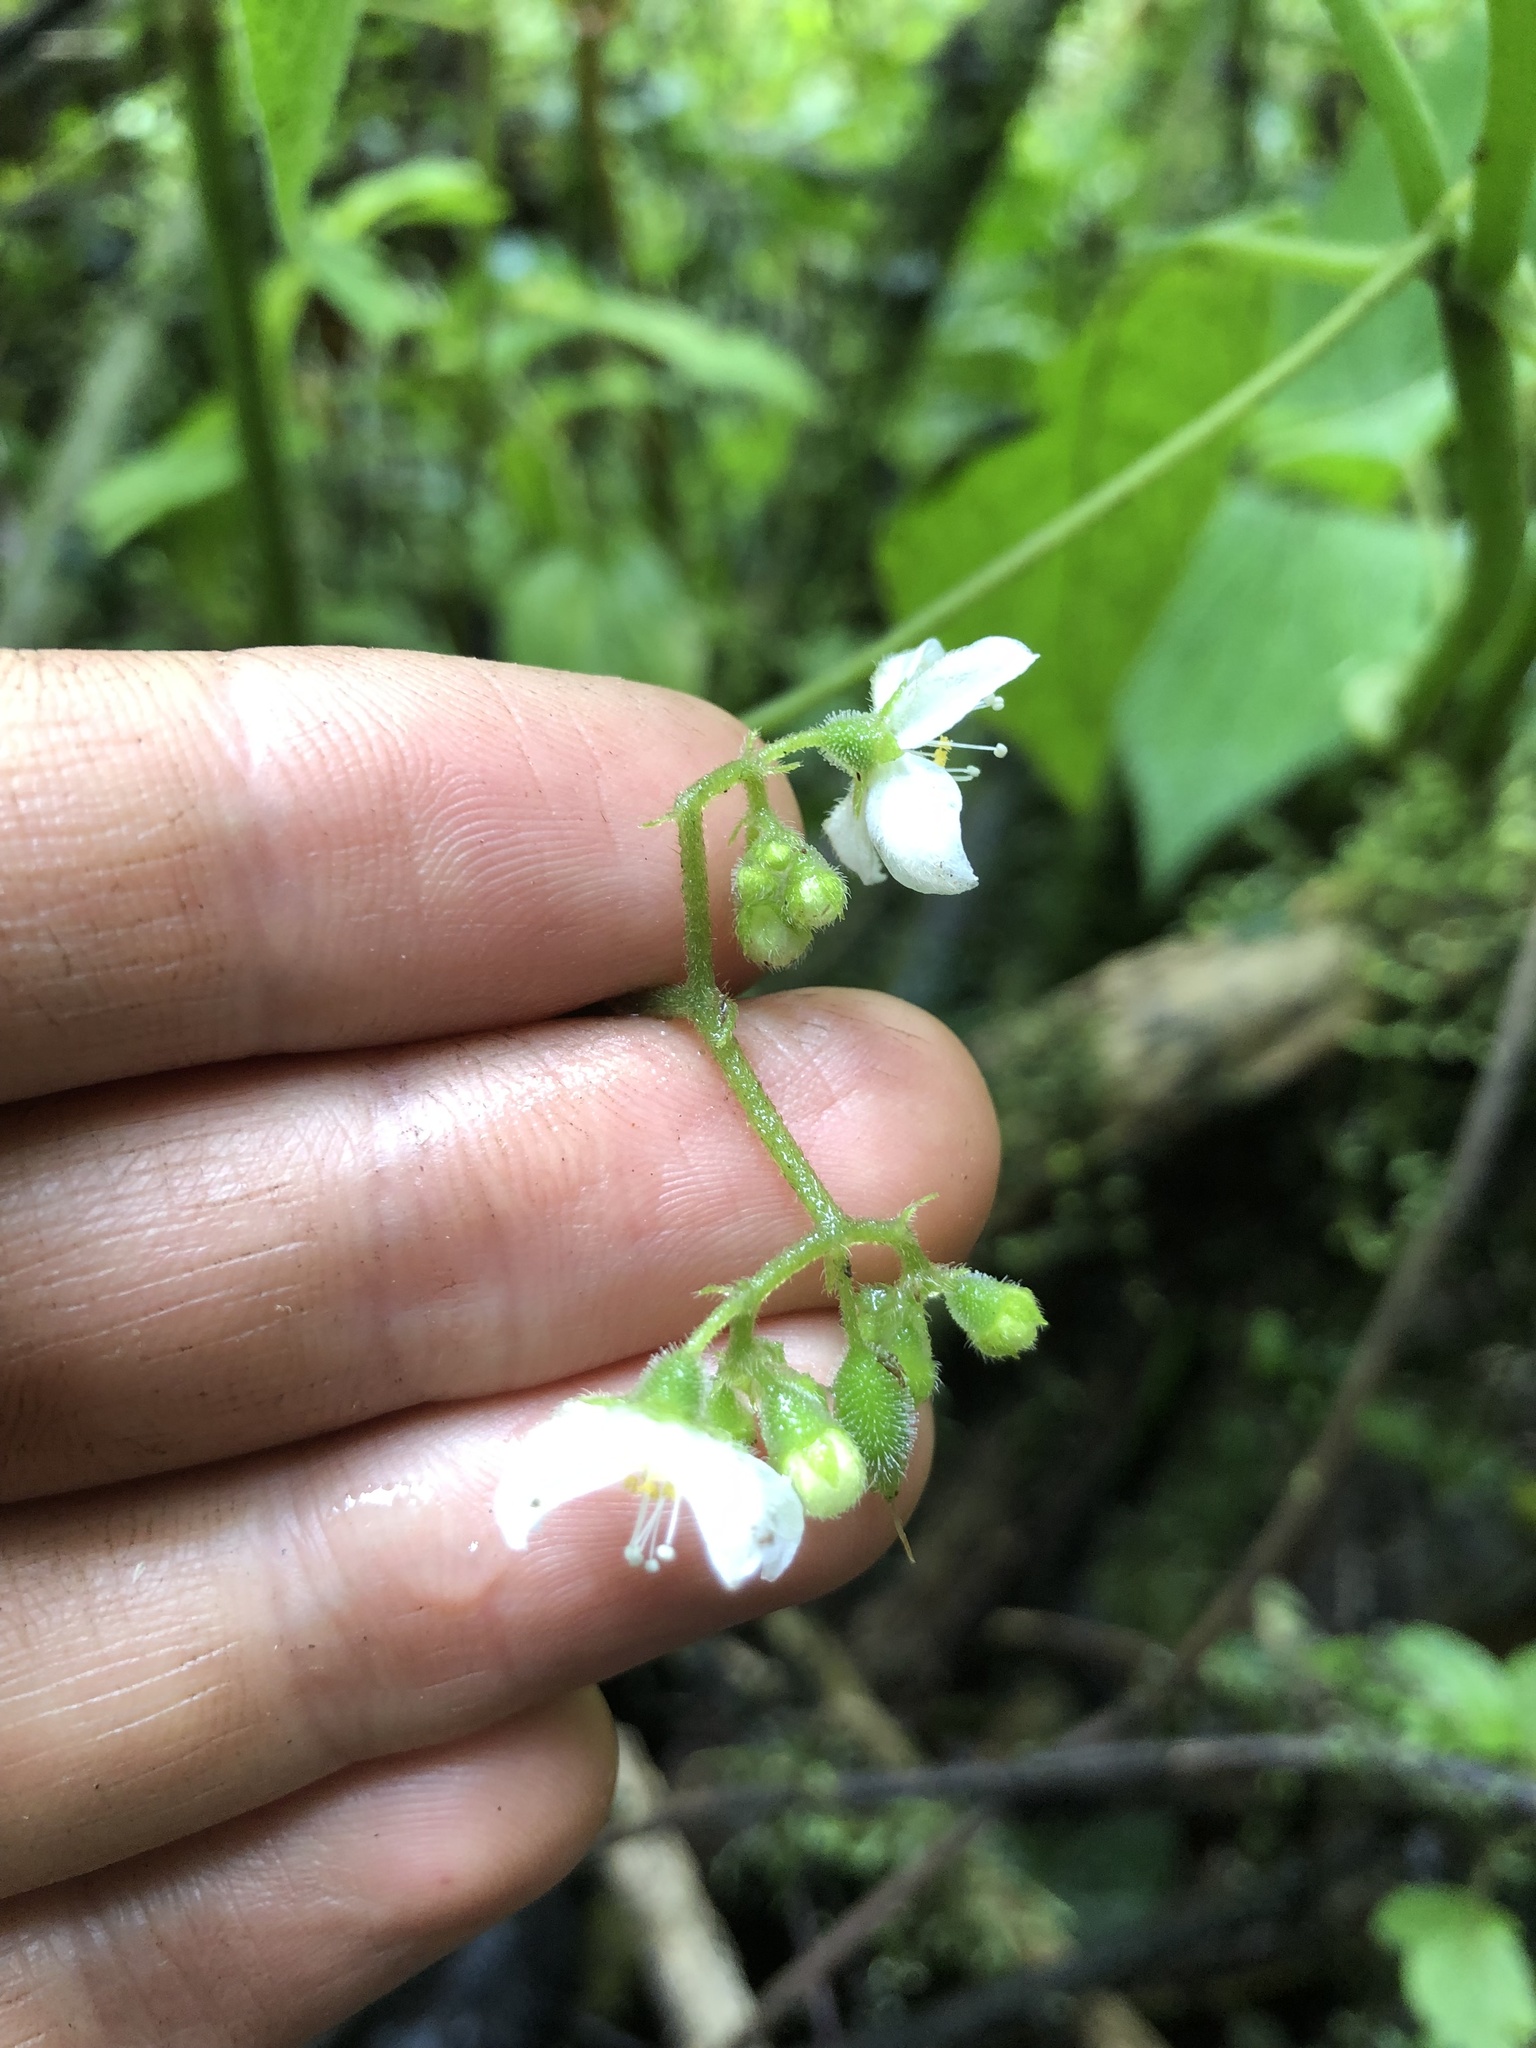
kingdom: Plantae
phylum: Tracheophyta
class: Magnoliopsida
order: Cornales
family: Loasaceae
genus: Klaprothia
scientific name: Klaprothia mentzelioides
